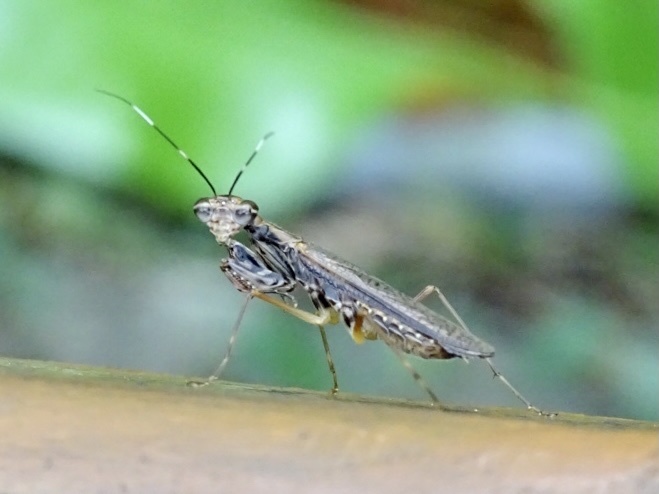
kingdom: Animalia
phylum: Arthropoda
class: Insecta
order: Mantodea
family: Gonypetidae
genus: Spilomantis
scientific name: Spilomantis occipitalis
